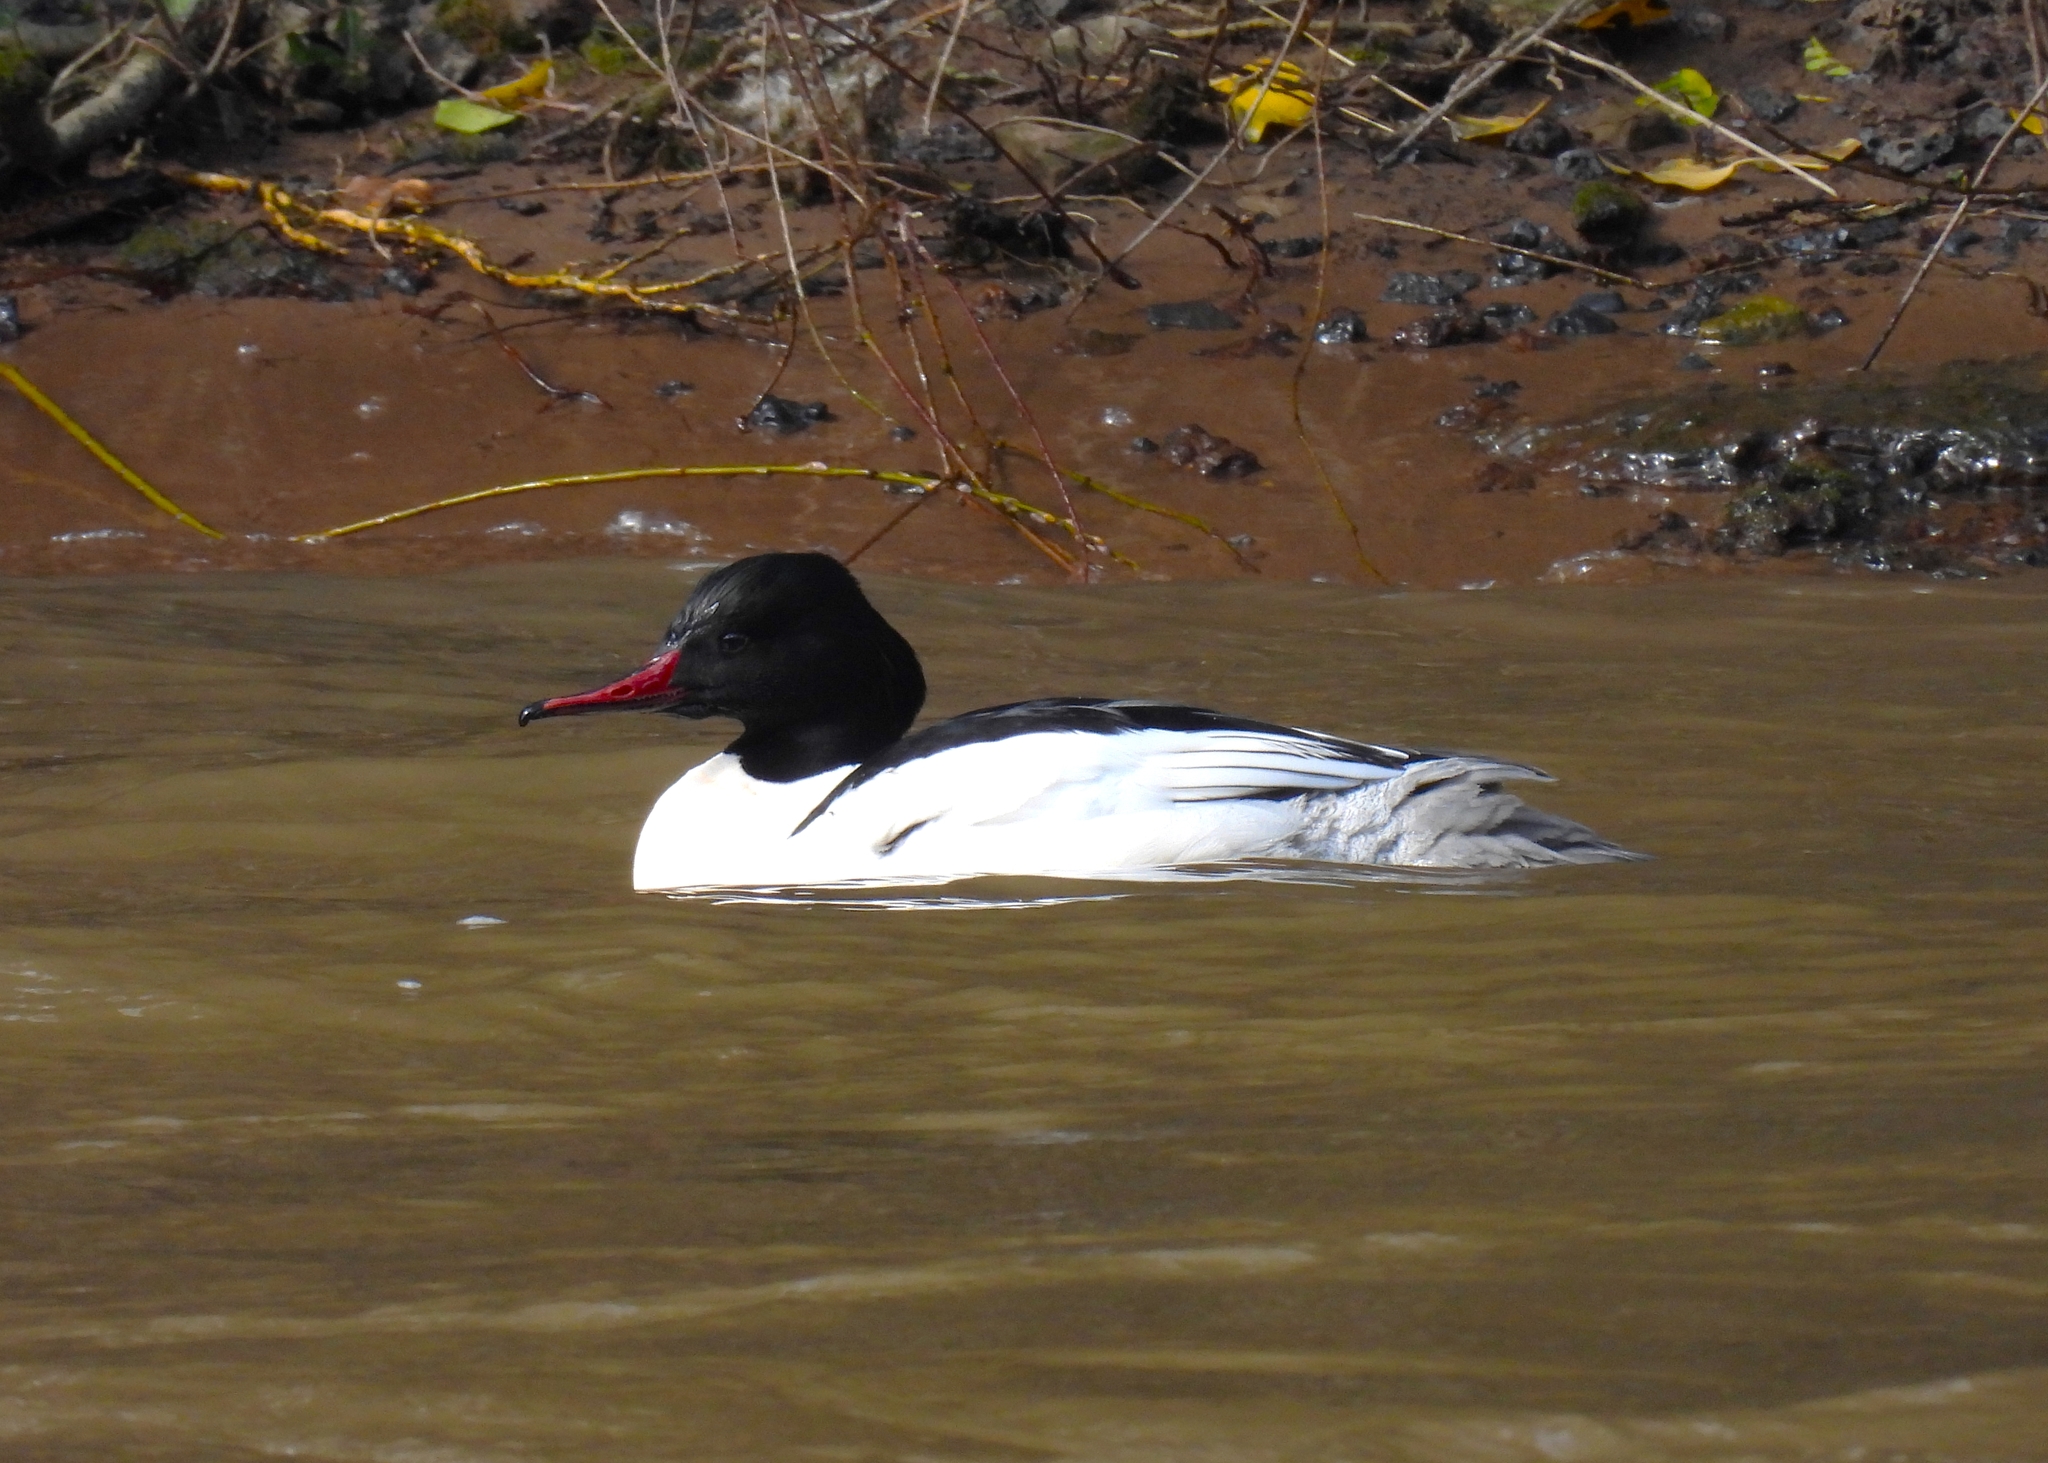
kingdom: Animalia
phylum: Chordata
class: Aves
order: Anseriformes
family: Anatidae
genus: Mergus
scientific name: Mergus merganser
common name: Common merganser
